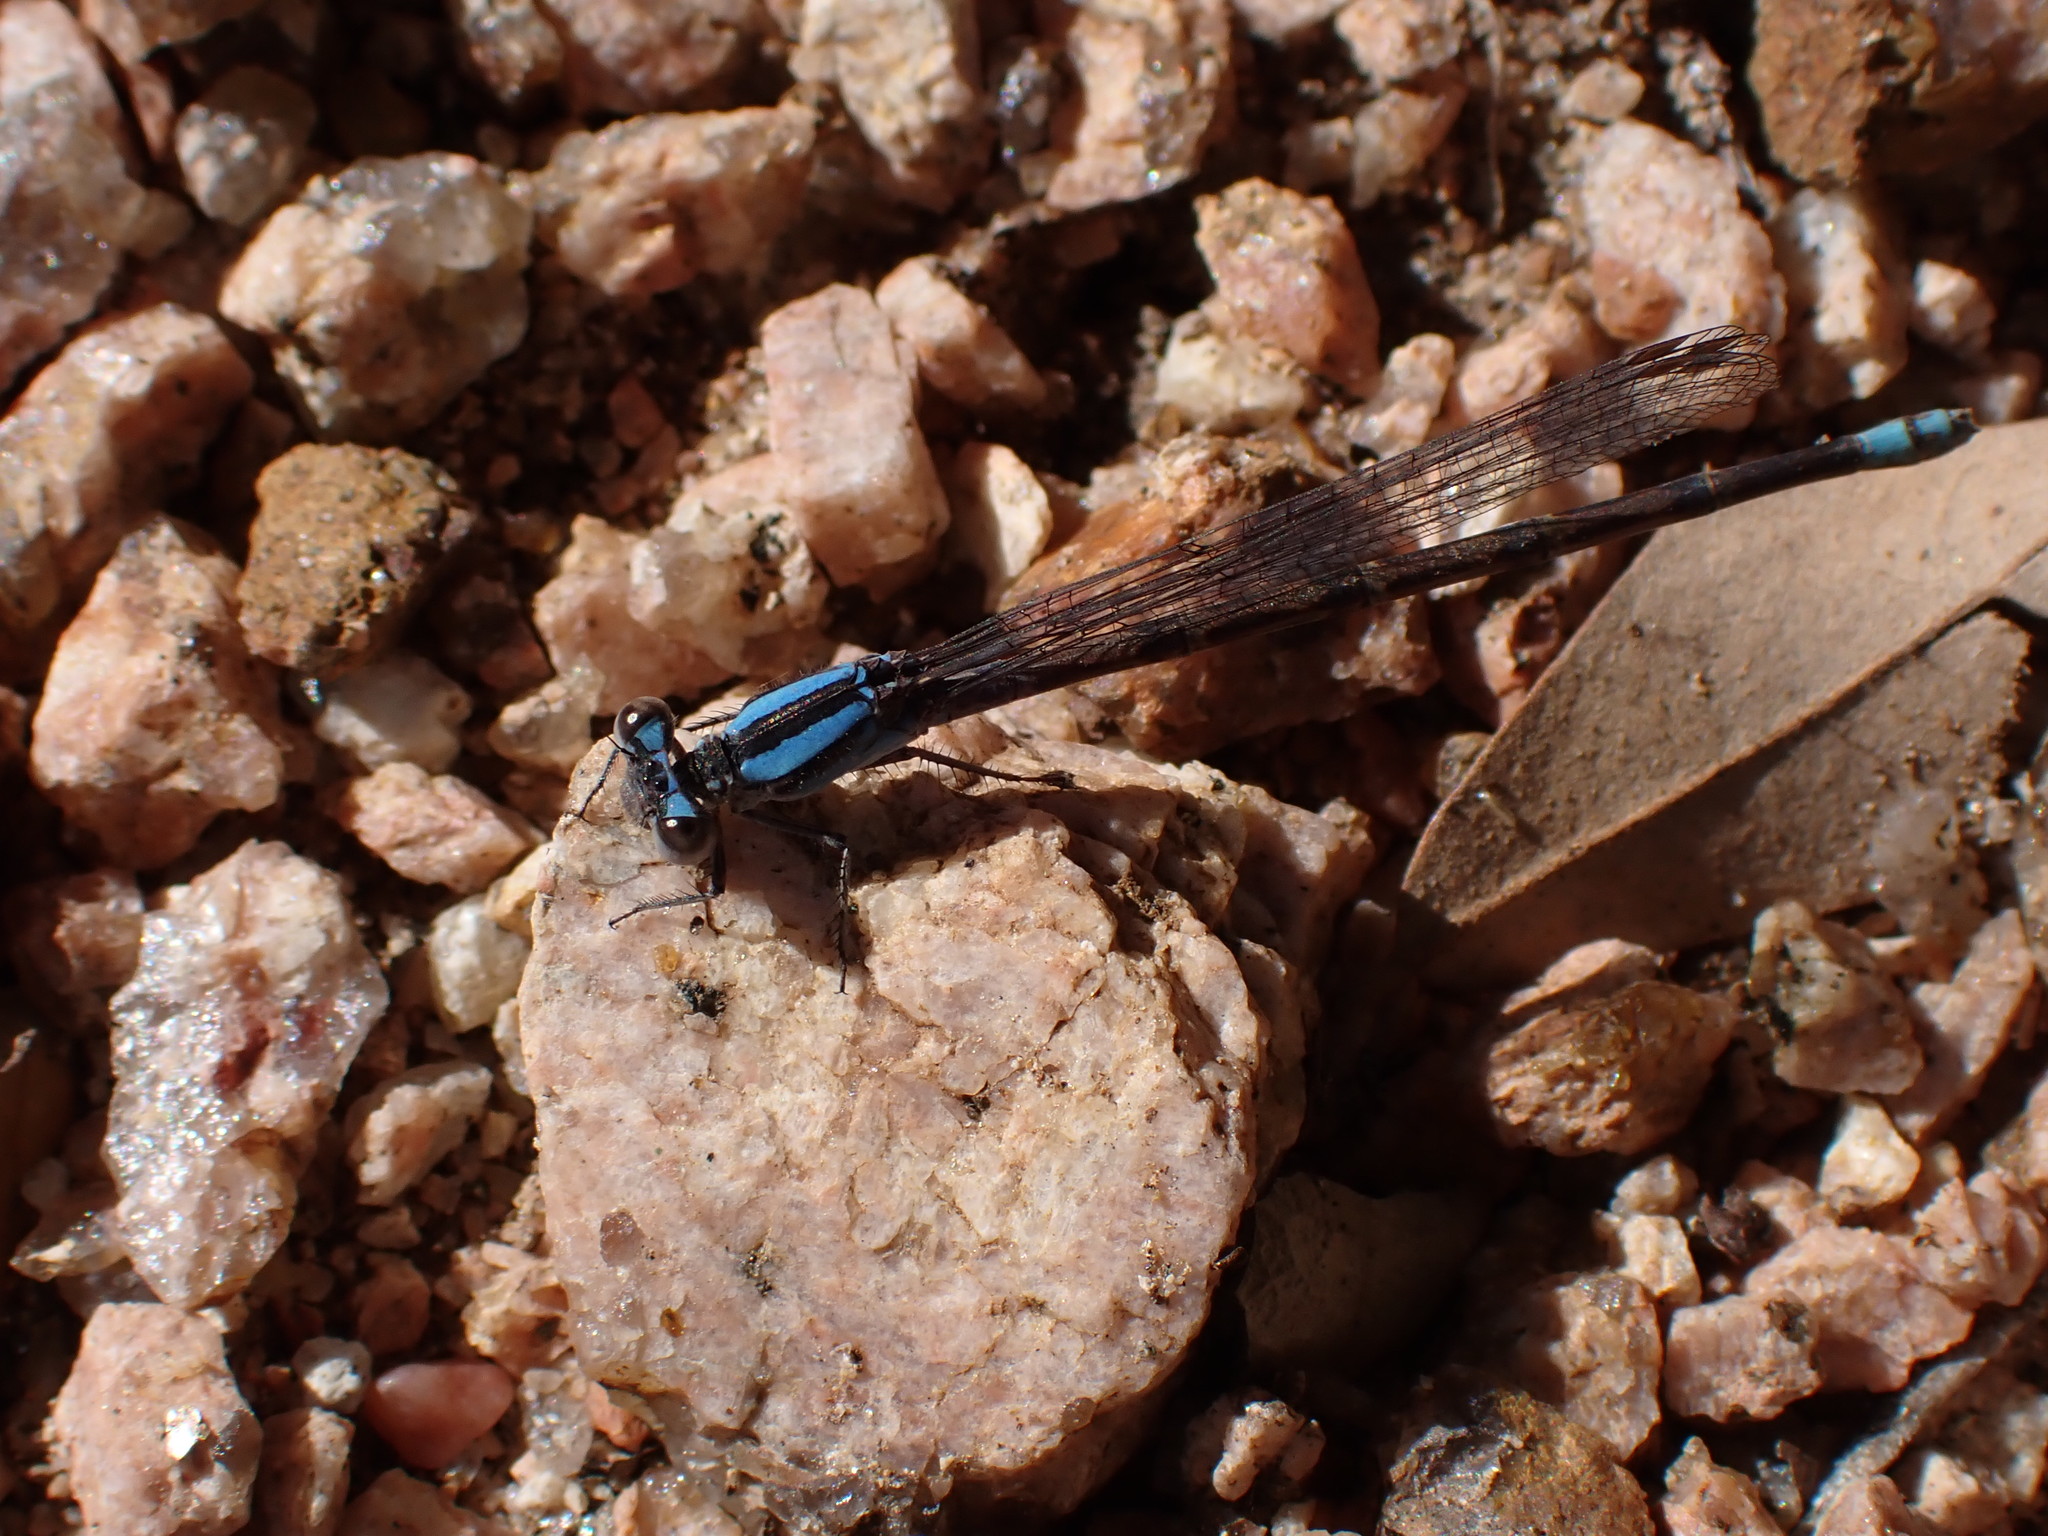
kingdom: Animalia
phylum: Arthropoda
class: Insecta
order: Odonata
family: Coenagrionidae
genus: Argia
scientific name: Argia immunda
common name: Kiowa dancer
